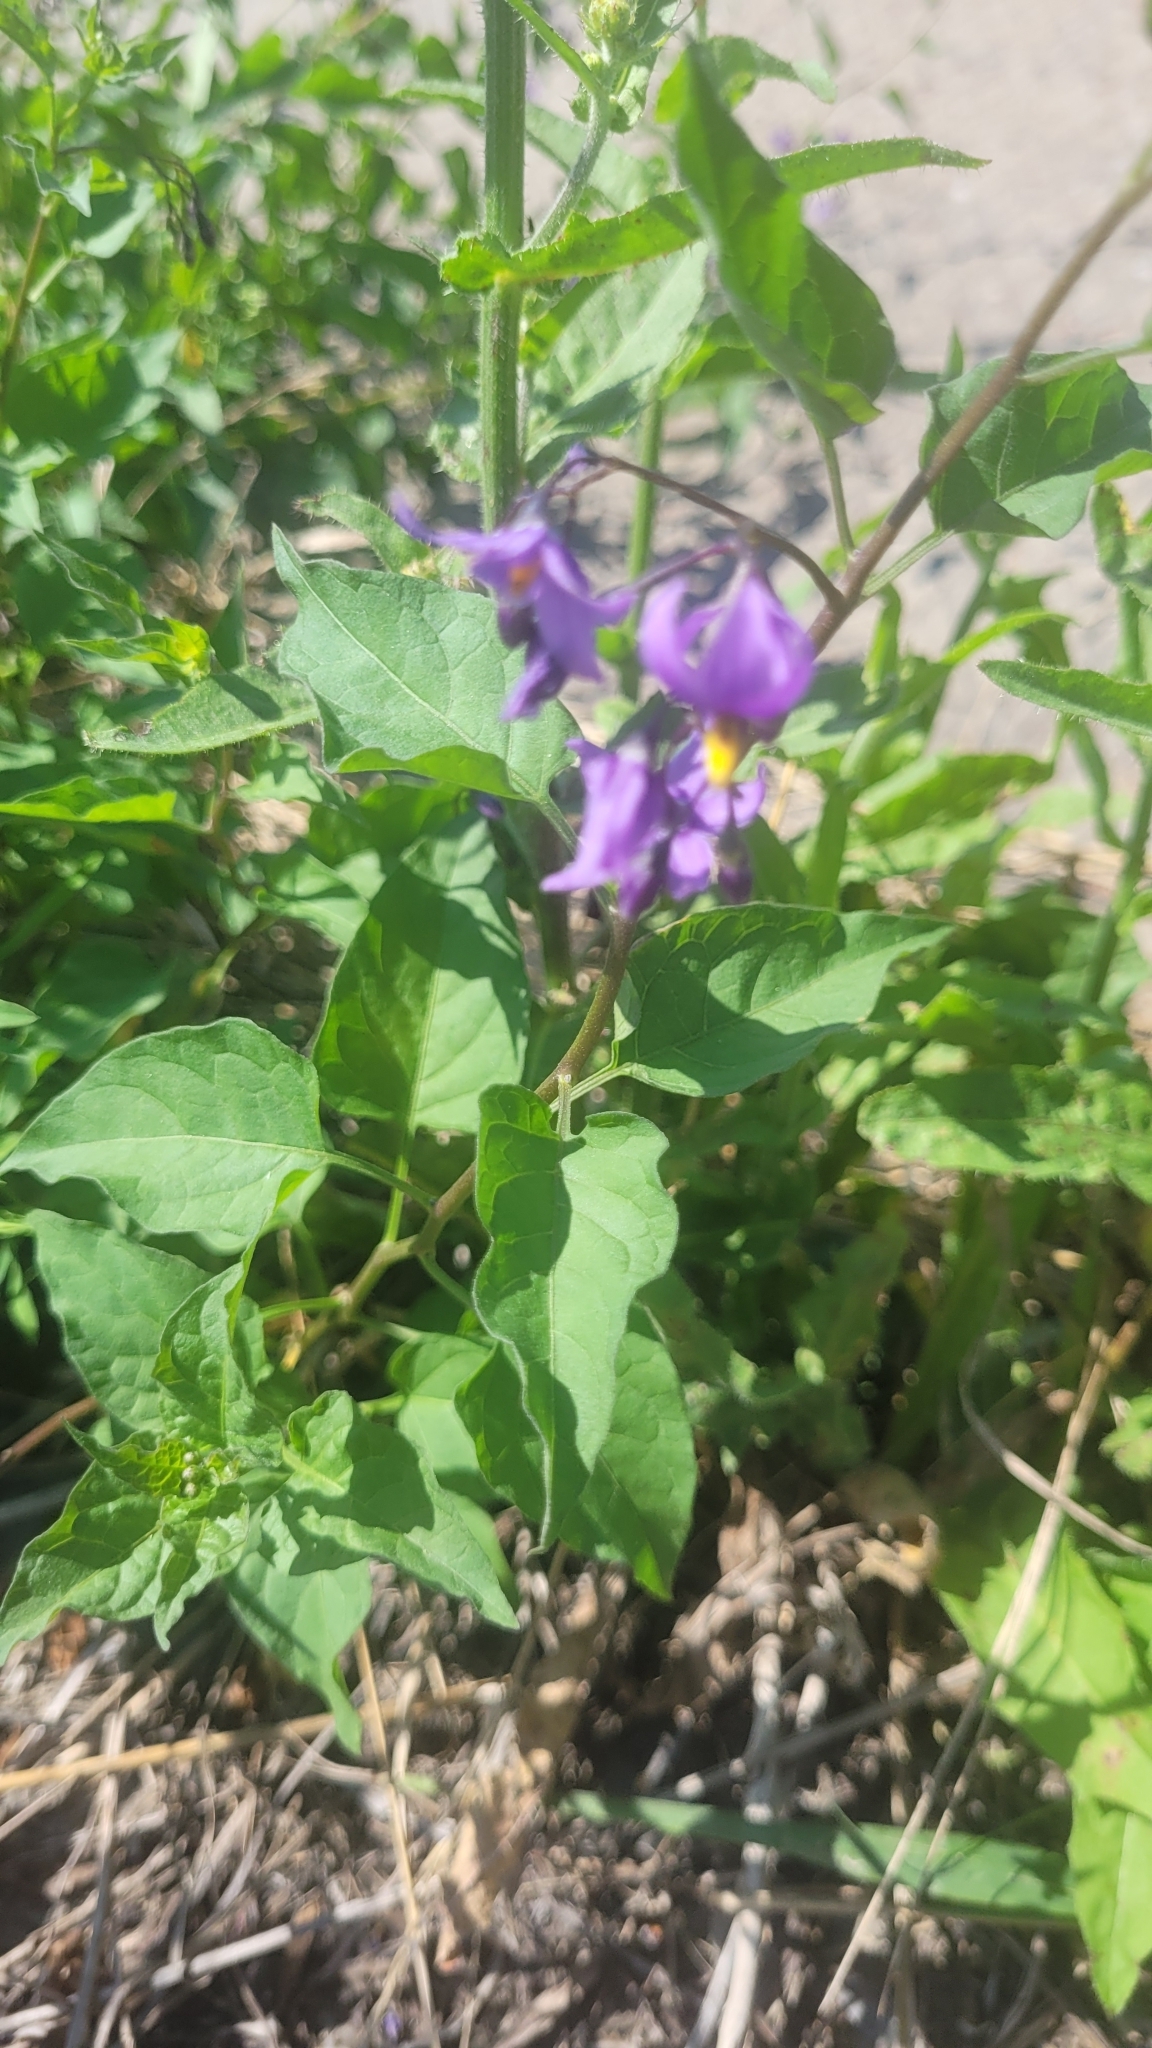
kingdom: Plantae
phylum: Tracheophyta
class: Magnoliopsida
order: Solanales
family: Solanaceae
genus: Solanum
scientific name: Solanum dulcamara
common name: Climbing nightshade
